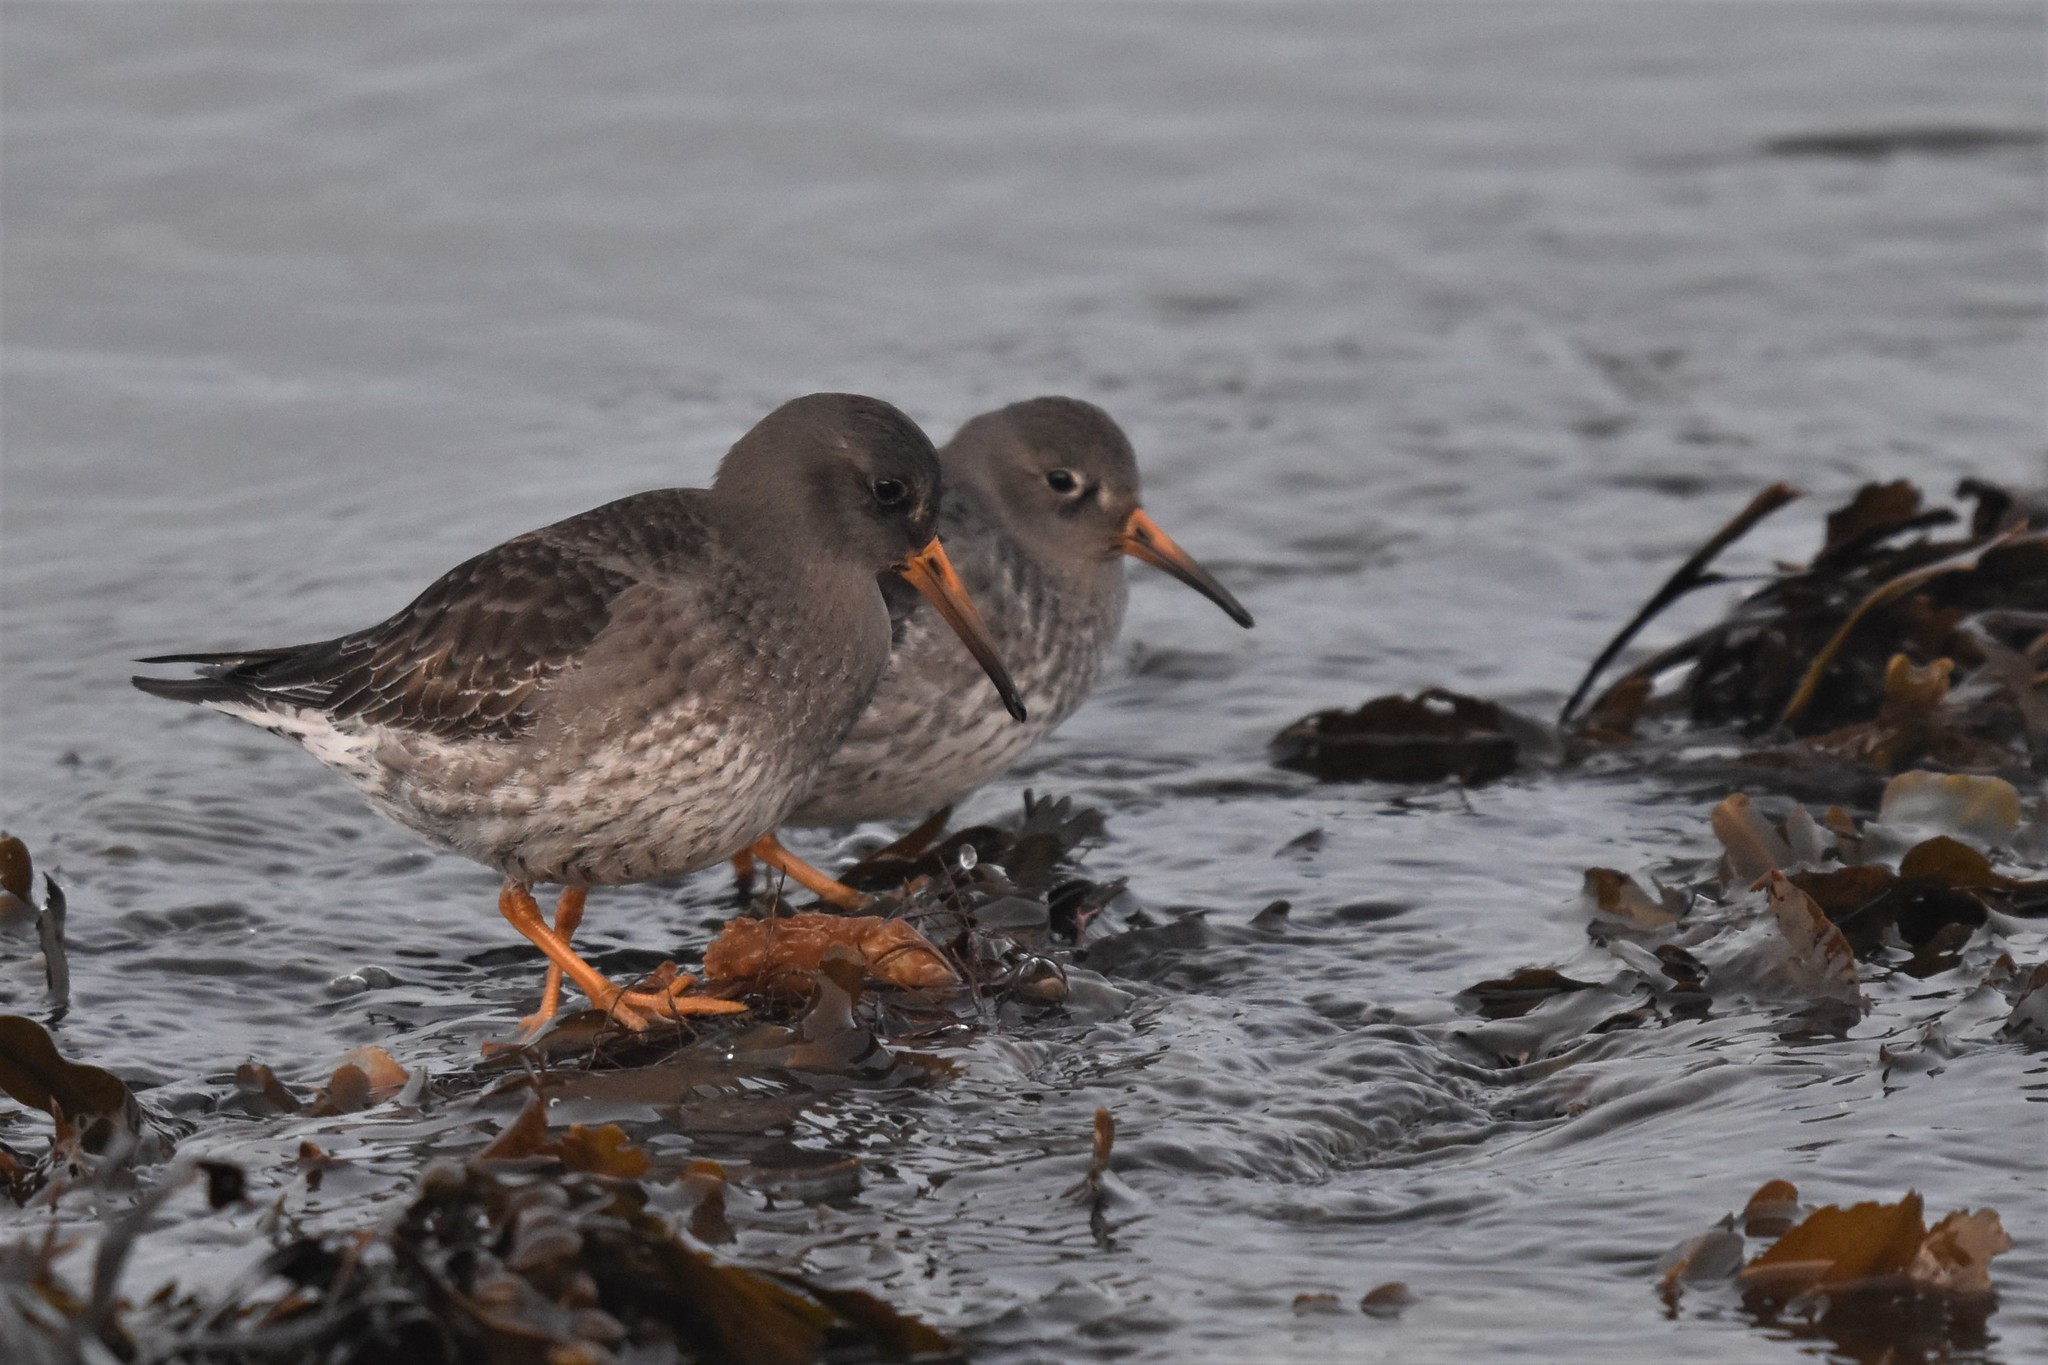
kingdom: Animalia
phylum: Chordata
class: Aves
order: Charadriiformes
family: Scolopacidae
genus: Calidris
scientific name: Calidris maritima
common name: Purple sandpiper
